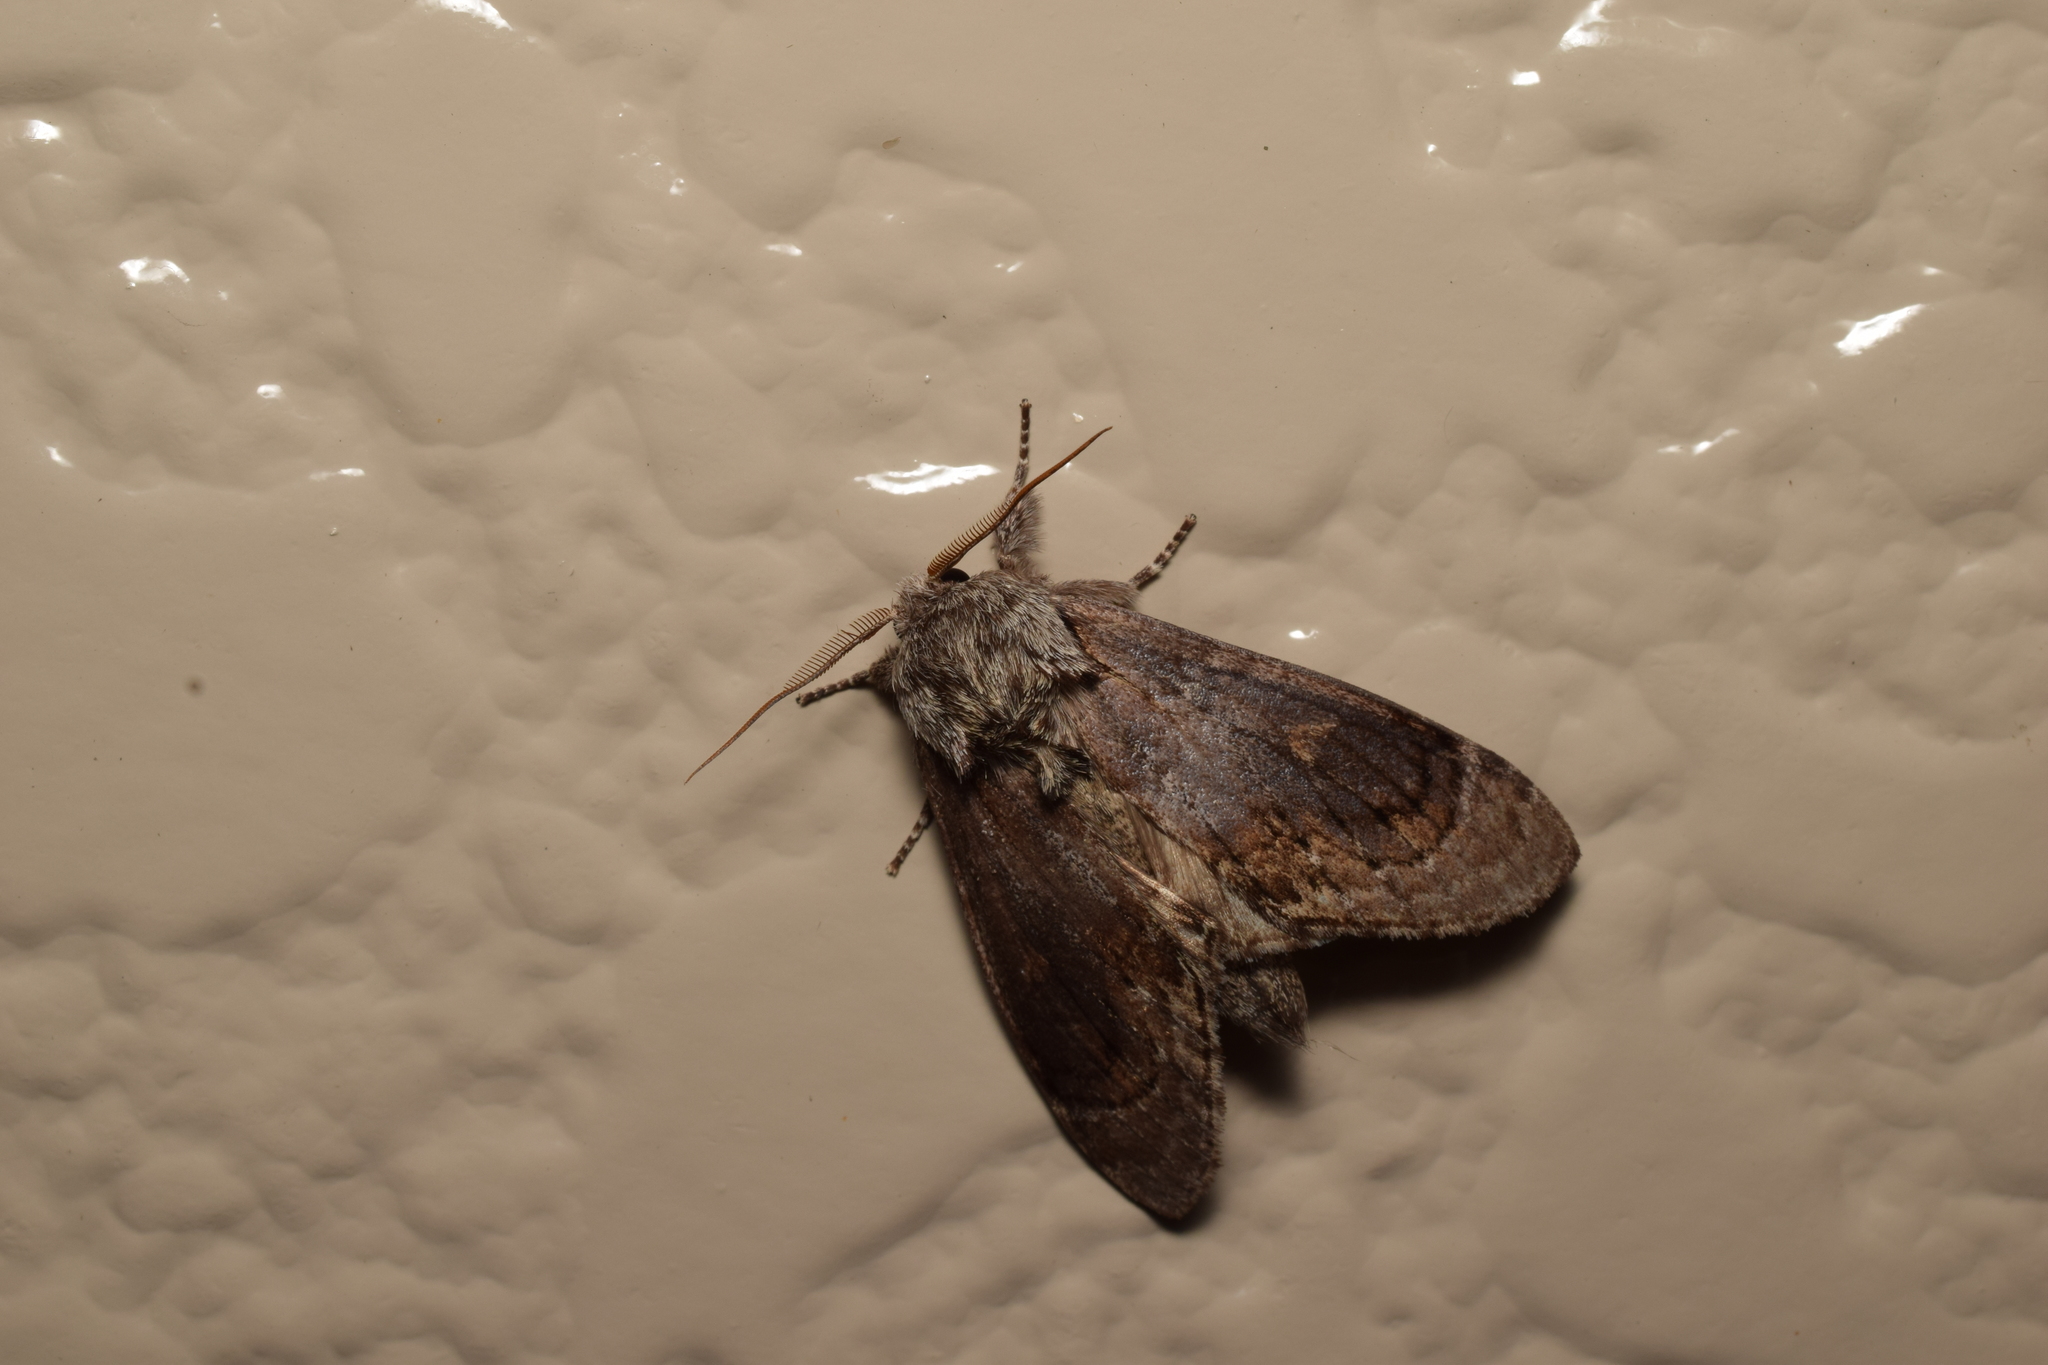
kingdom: Animalia
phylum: Arthropoda
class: Insecta
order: Lepidoptera
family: Notodontidae
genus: Fentonia
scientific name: Fentonia ocypete
